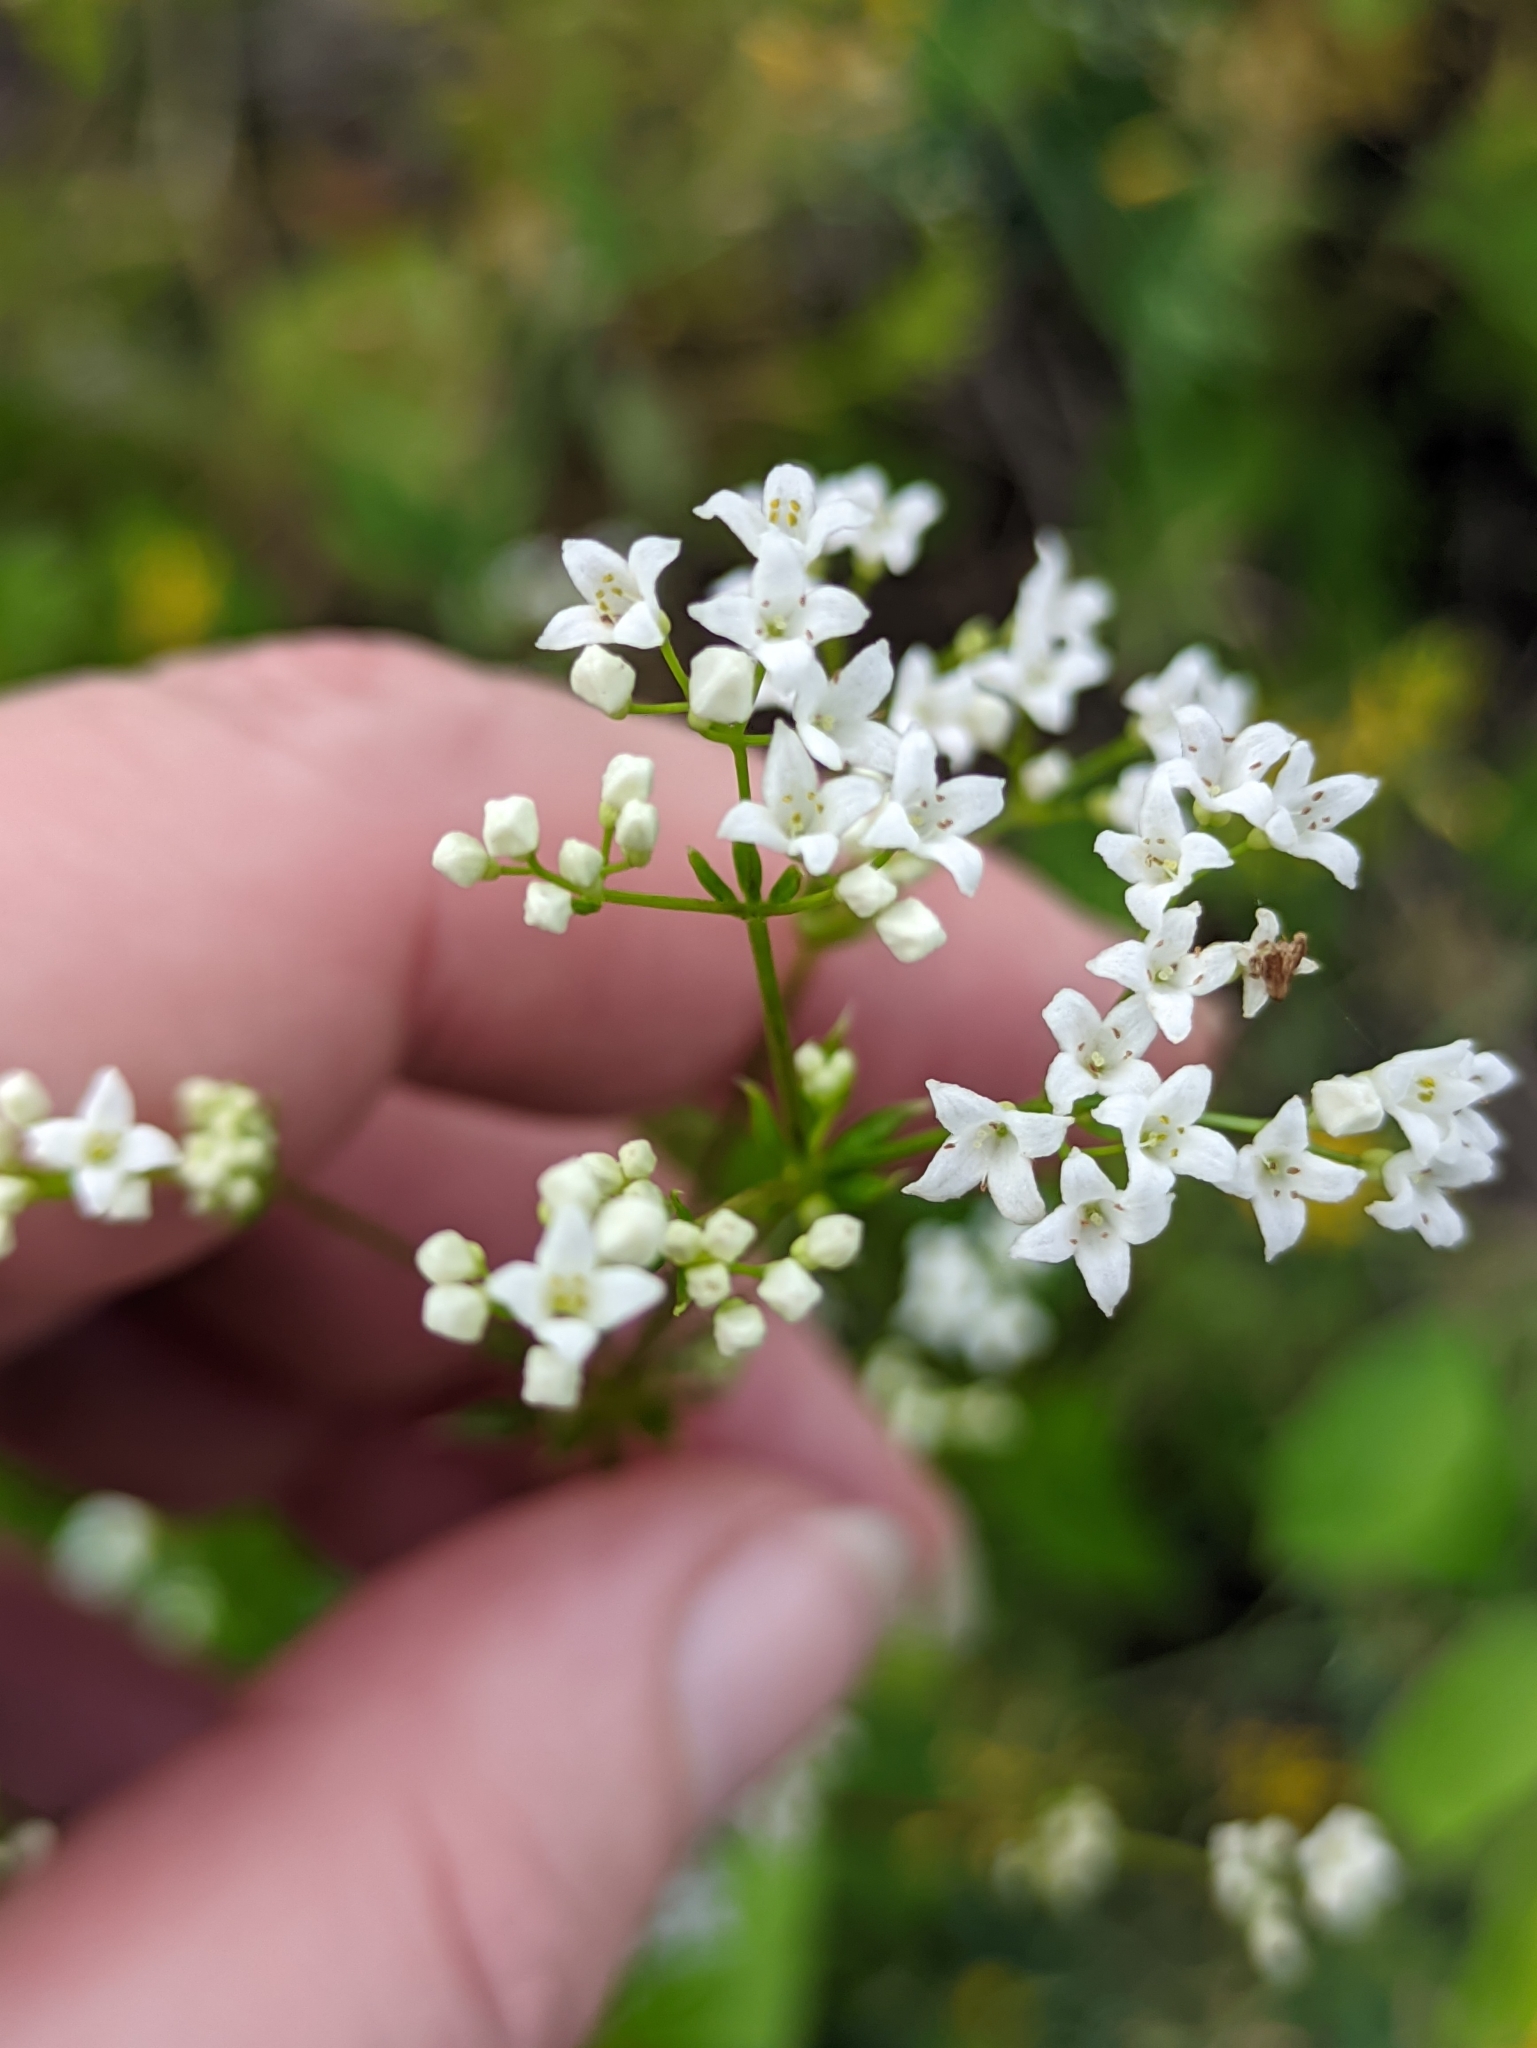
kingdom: Plantae
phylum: Tracheophyta
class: Magnoliopsida
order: Gentianales
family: Rubiaceae
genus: Galium
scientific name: Galium rivale
